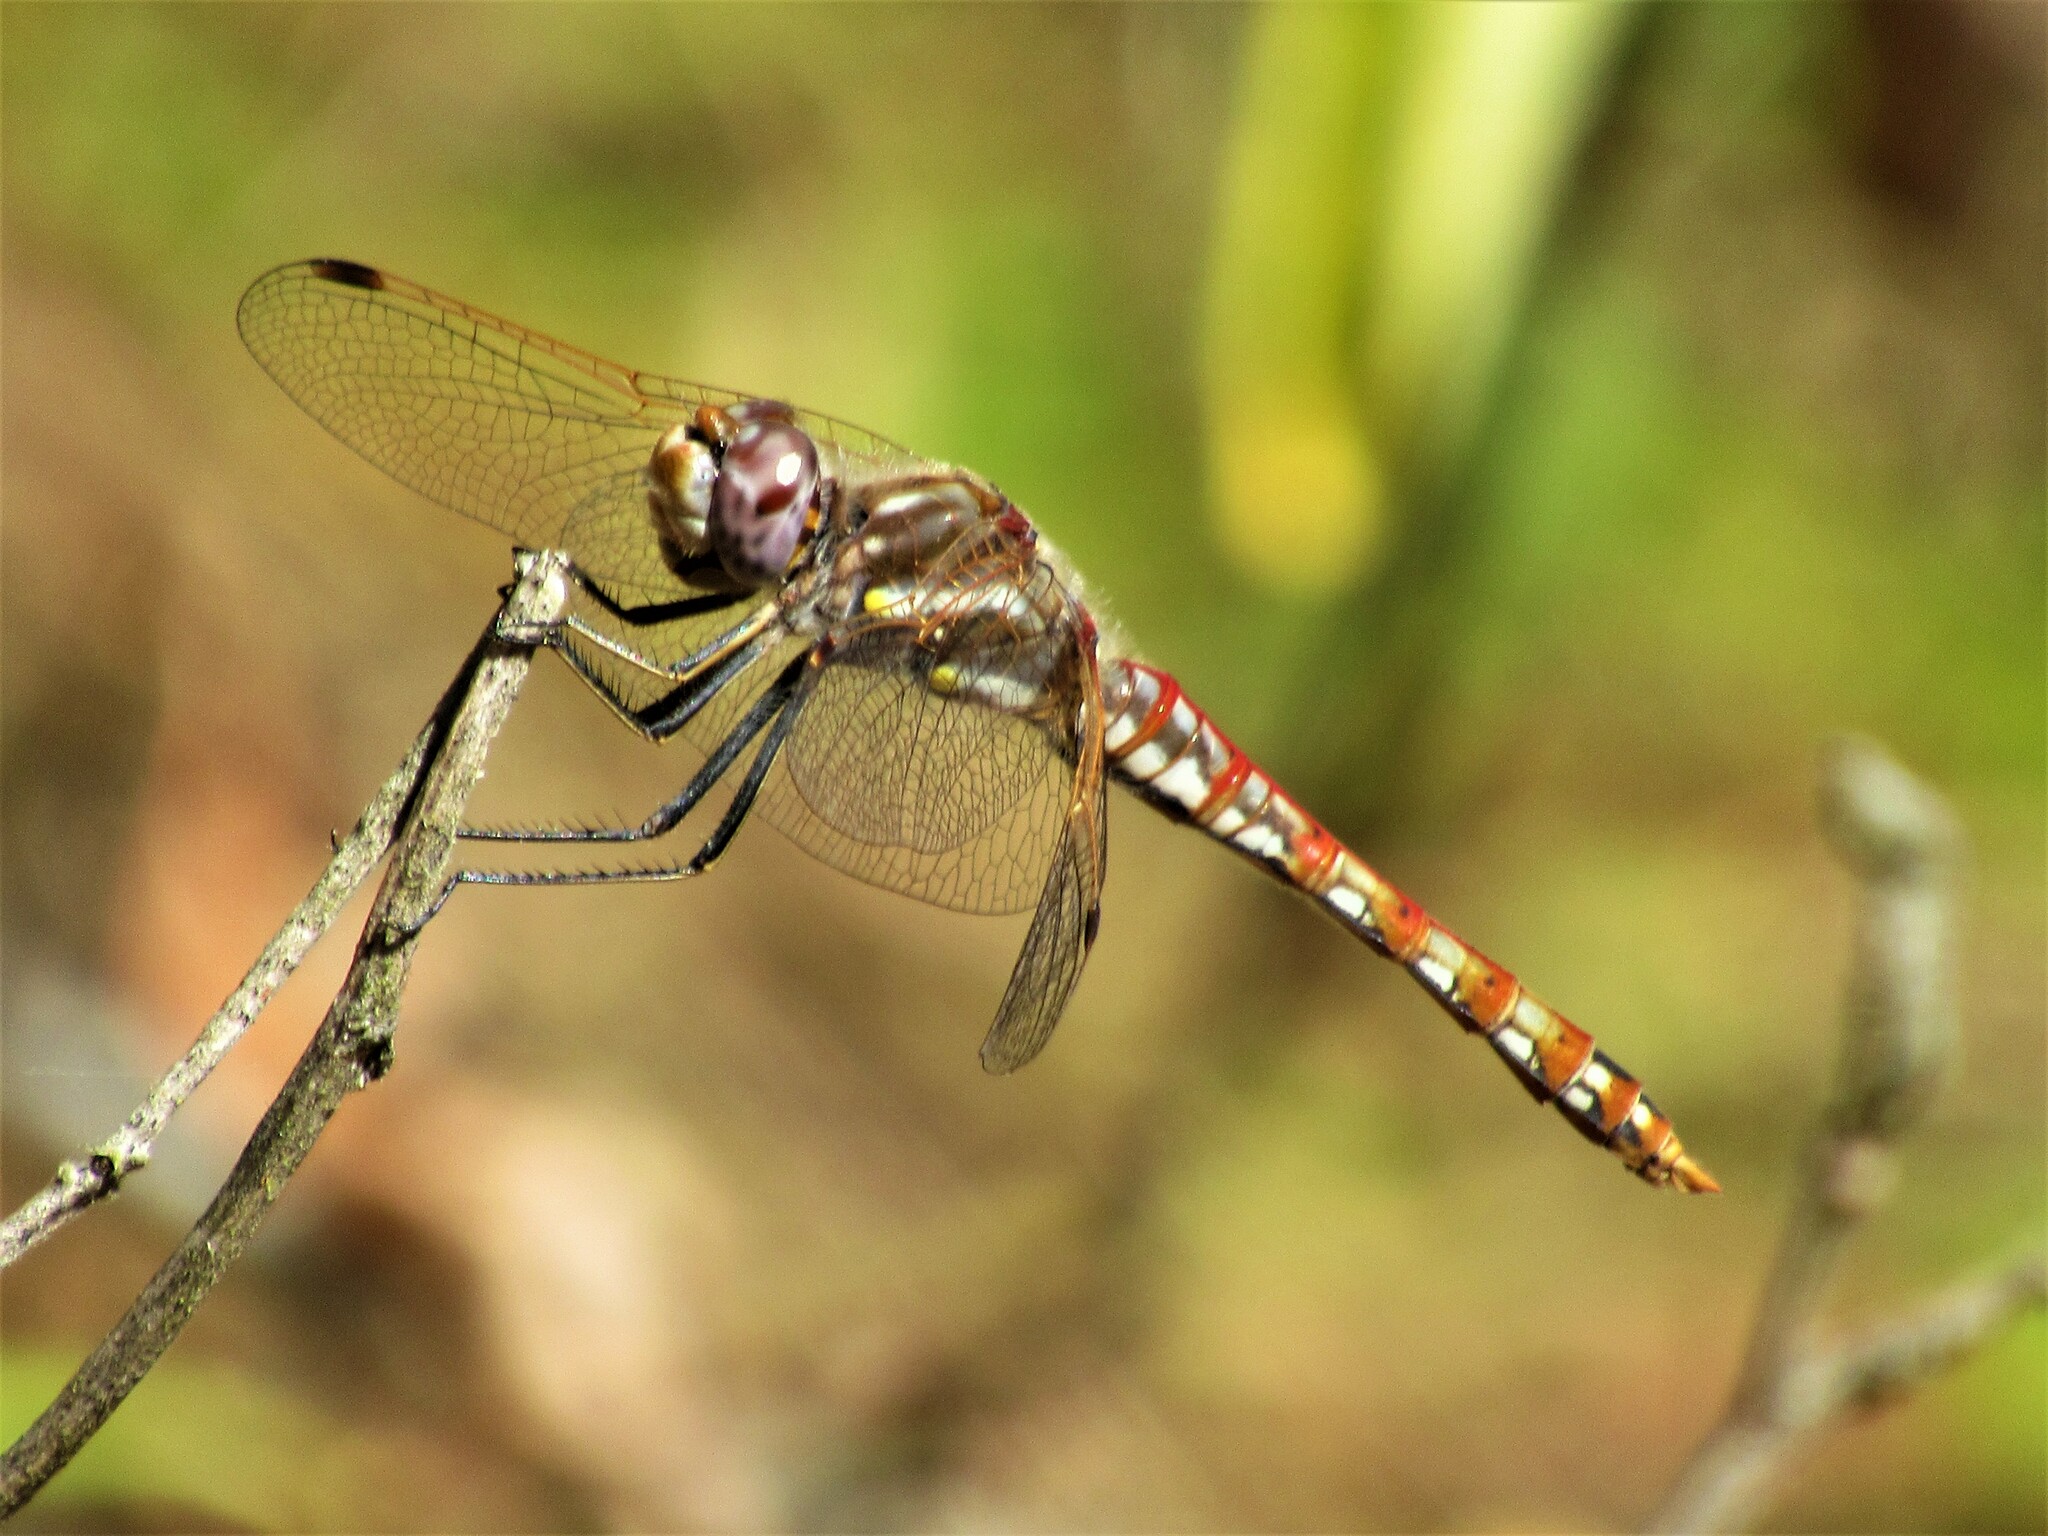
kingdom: Animalia
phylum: Arthropoda
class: Insecta
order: Odonata
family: Libellulidae
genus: Sympetrum
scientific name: Sympetrum corruptum
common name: Variegated meadowhawk
